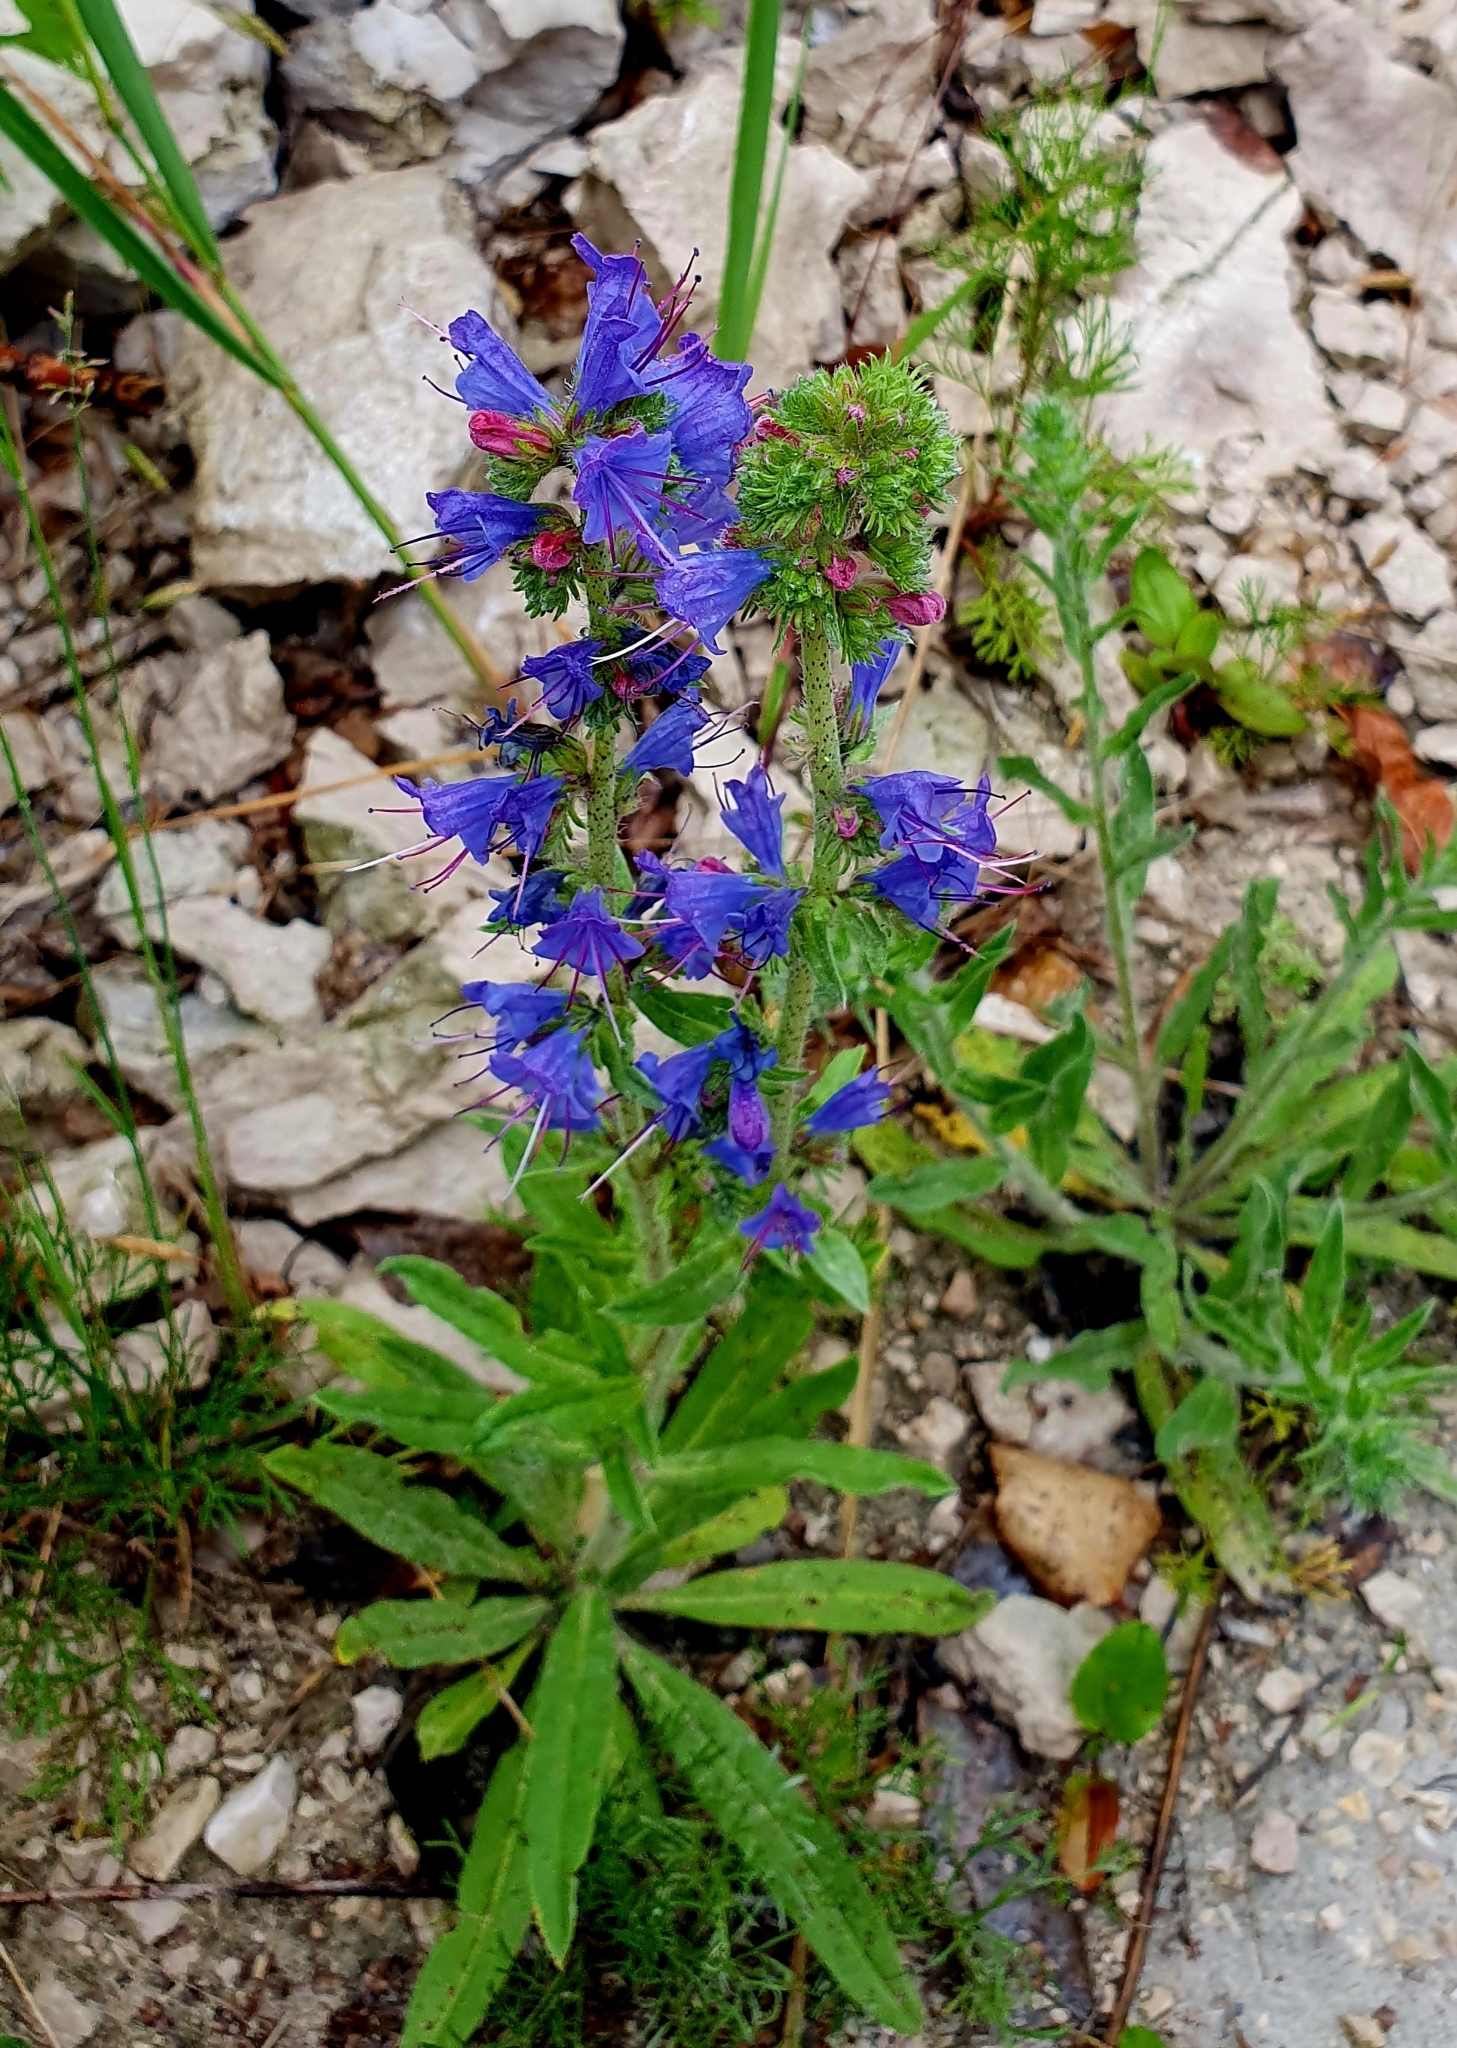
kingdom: Plantae
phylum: Tracheophyta
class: Magnoliopsida
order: Boraginales
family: Boraginaceae
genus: Echium
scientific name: Echium vulgare
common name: Common viper's bugloss
